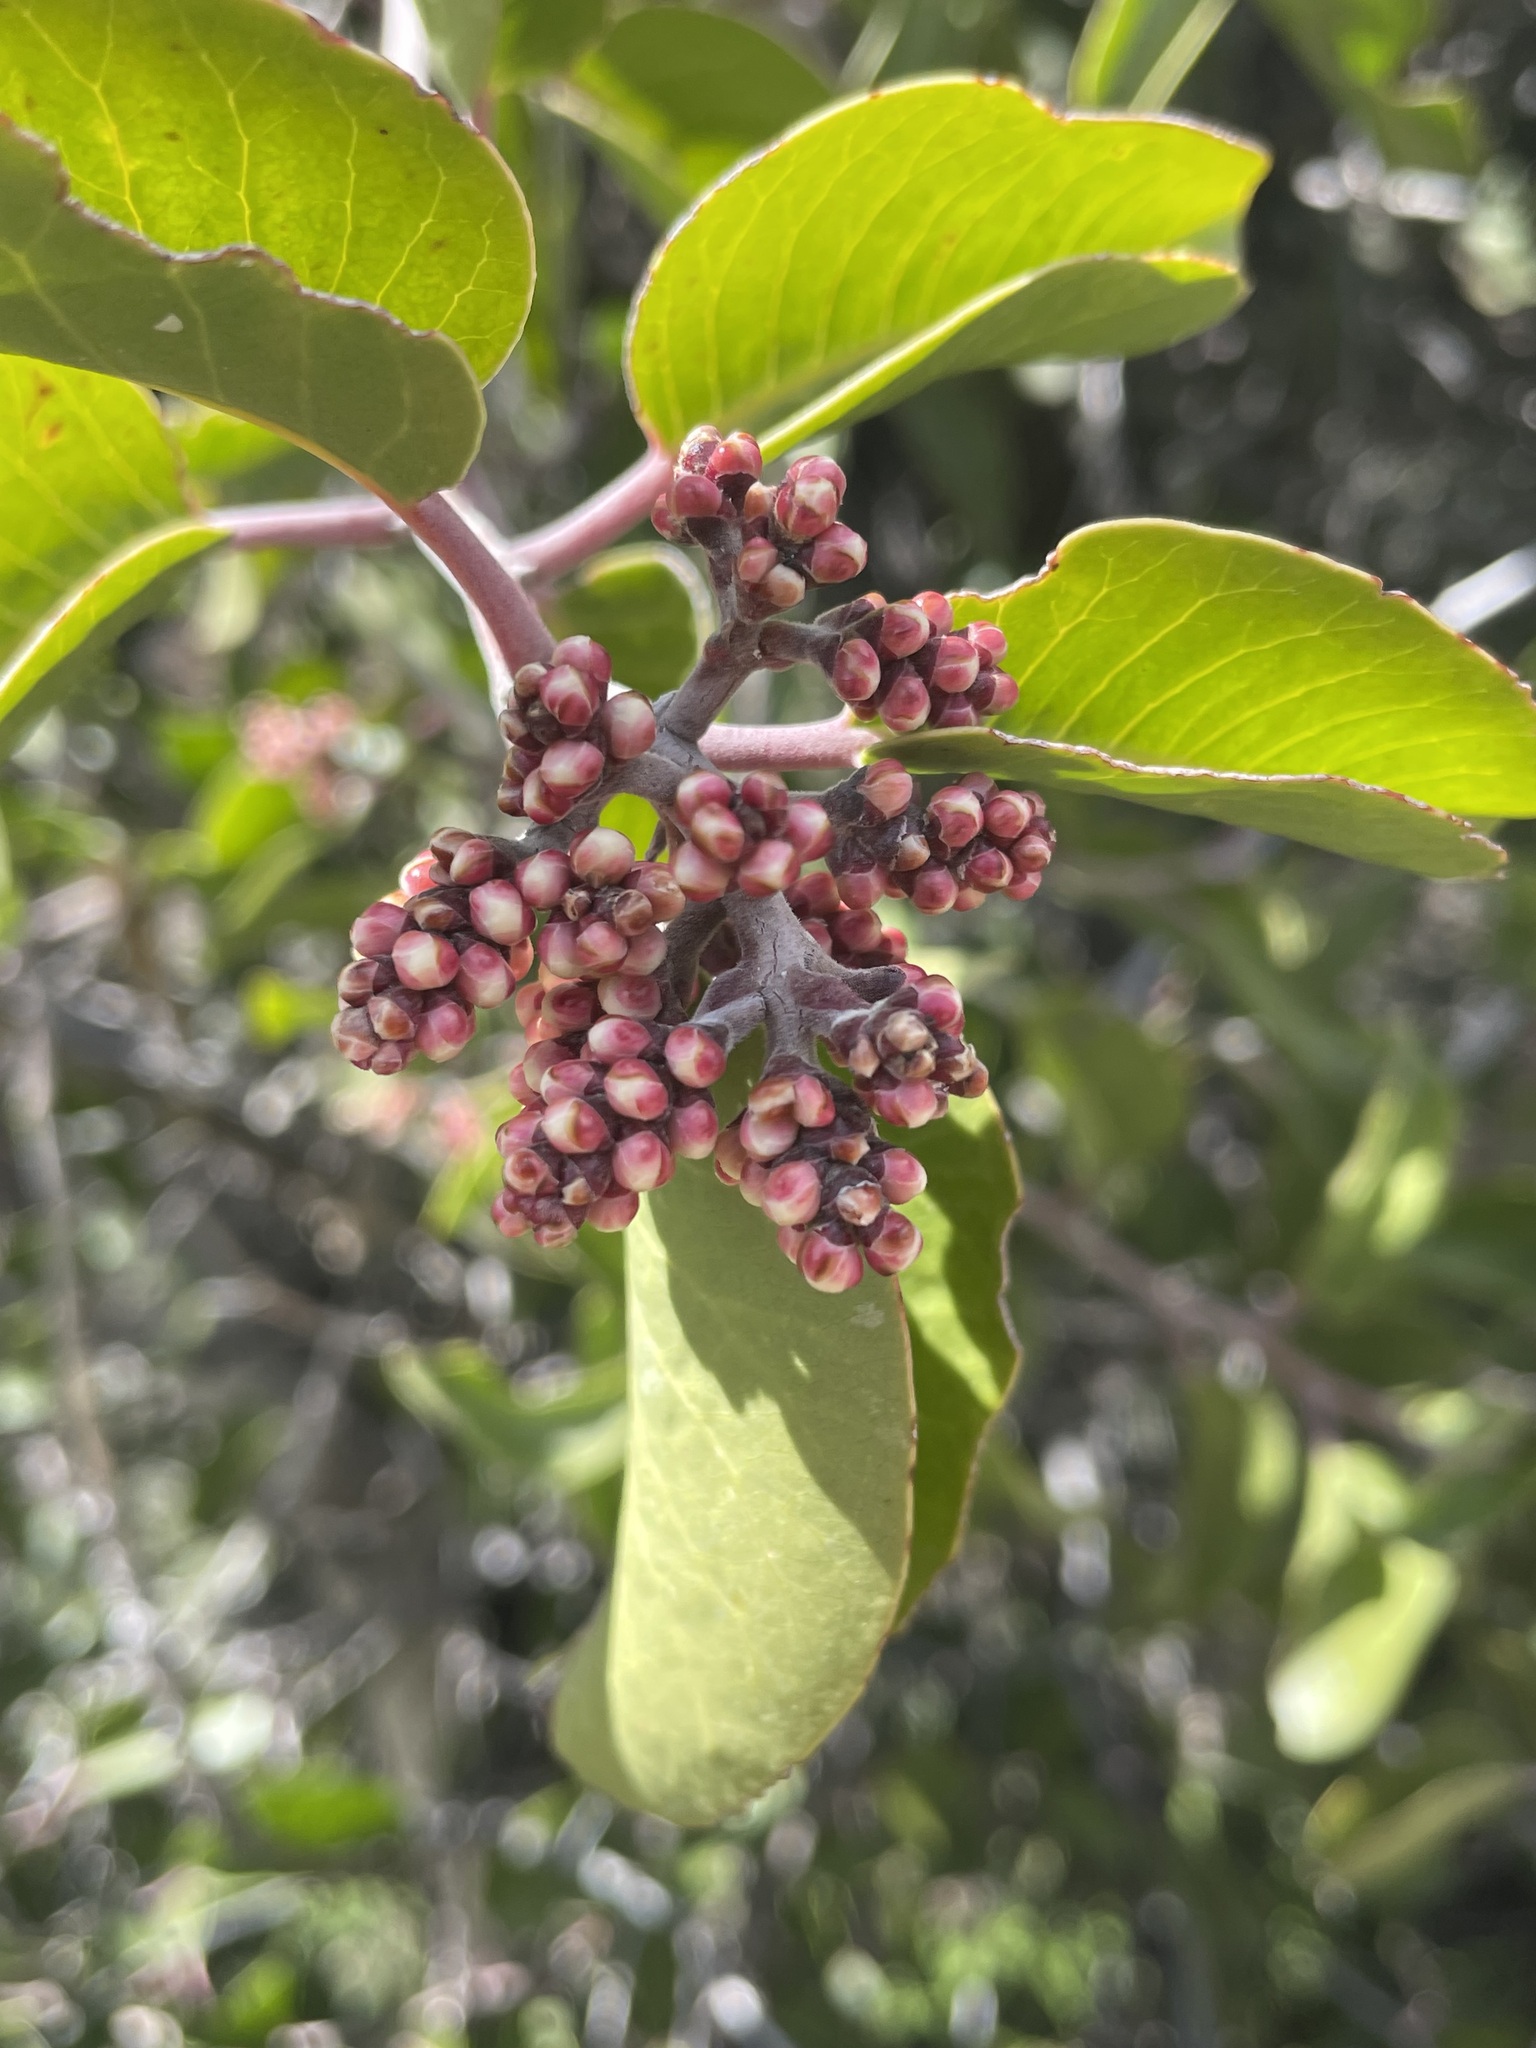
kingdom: Plantae
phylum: Tracheophyta
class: Magnoliopsida
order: Sapindales
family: Anacardiaceae
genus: Rhus
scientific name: Rhus ovata
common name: Sugar sumac
